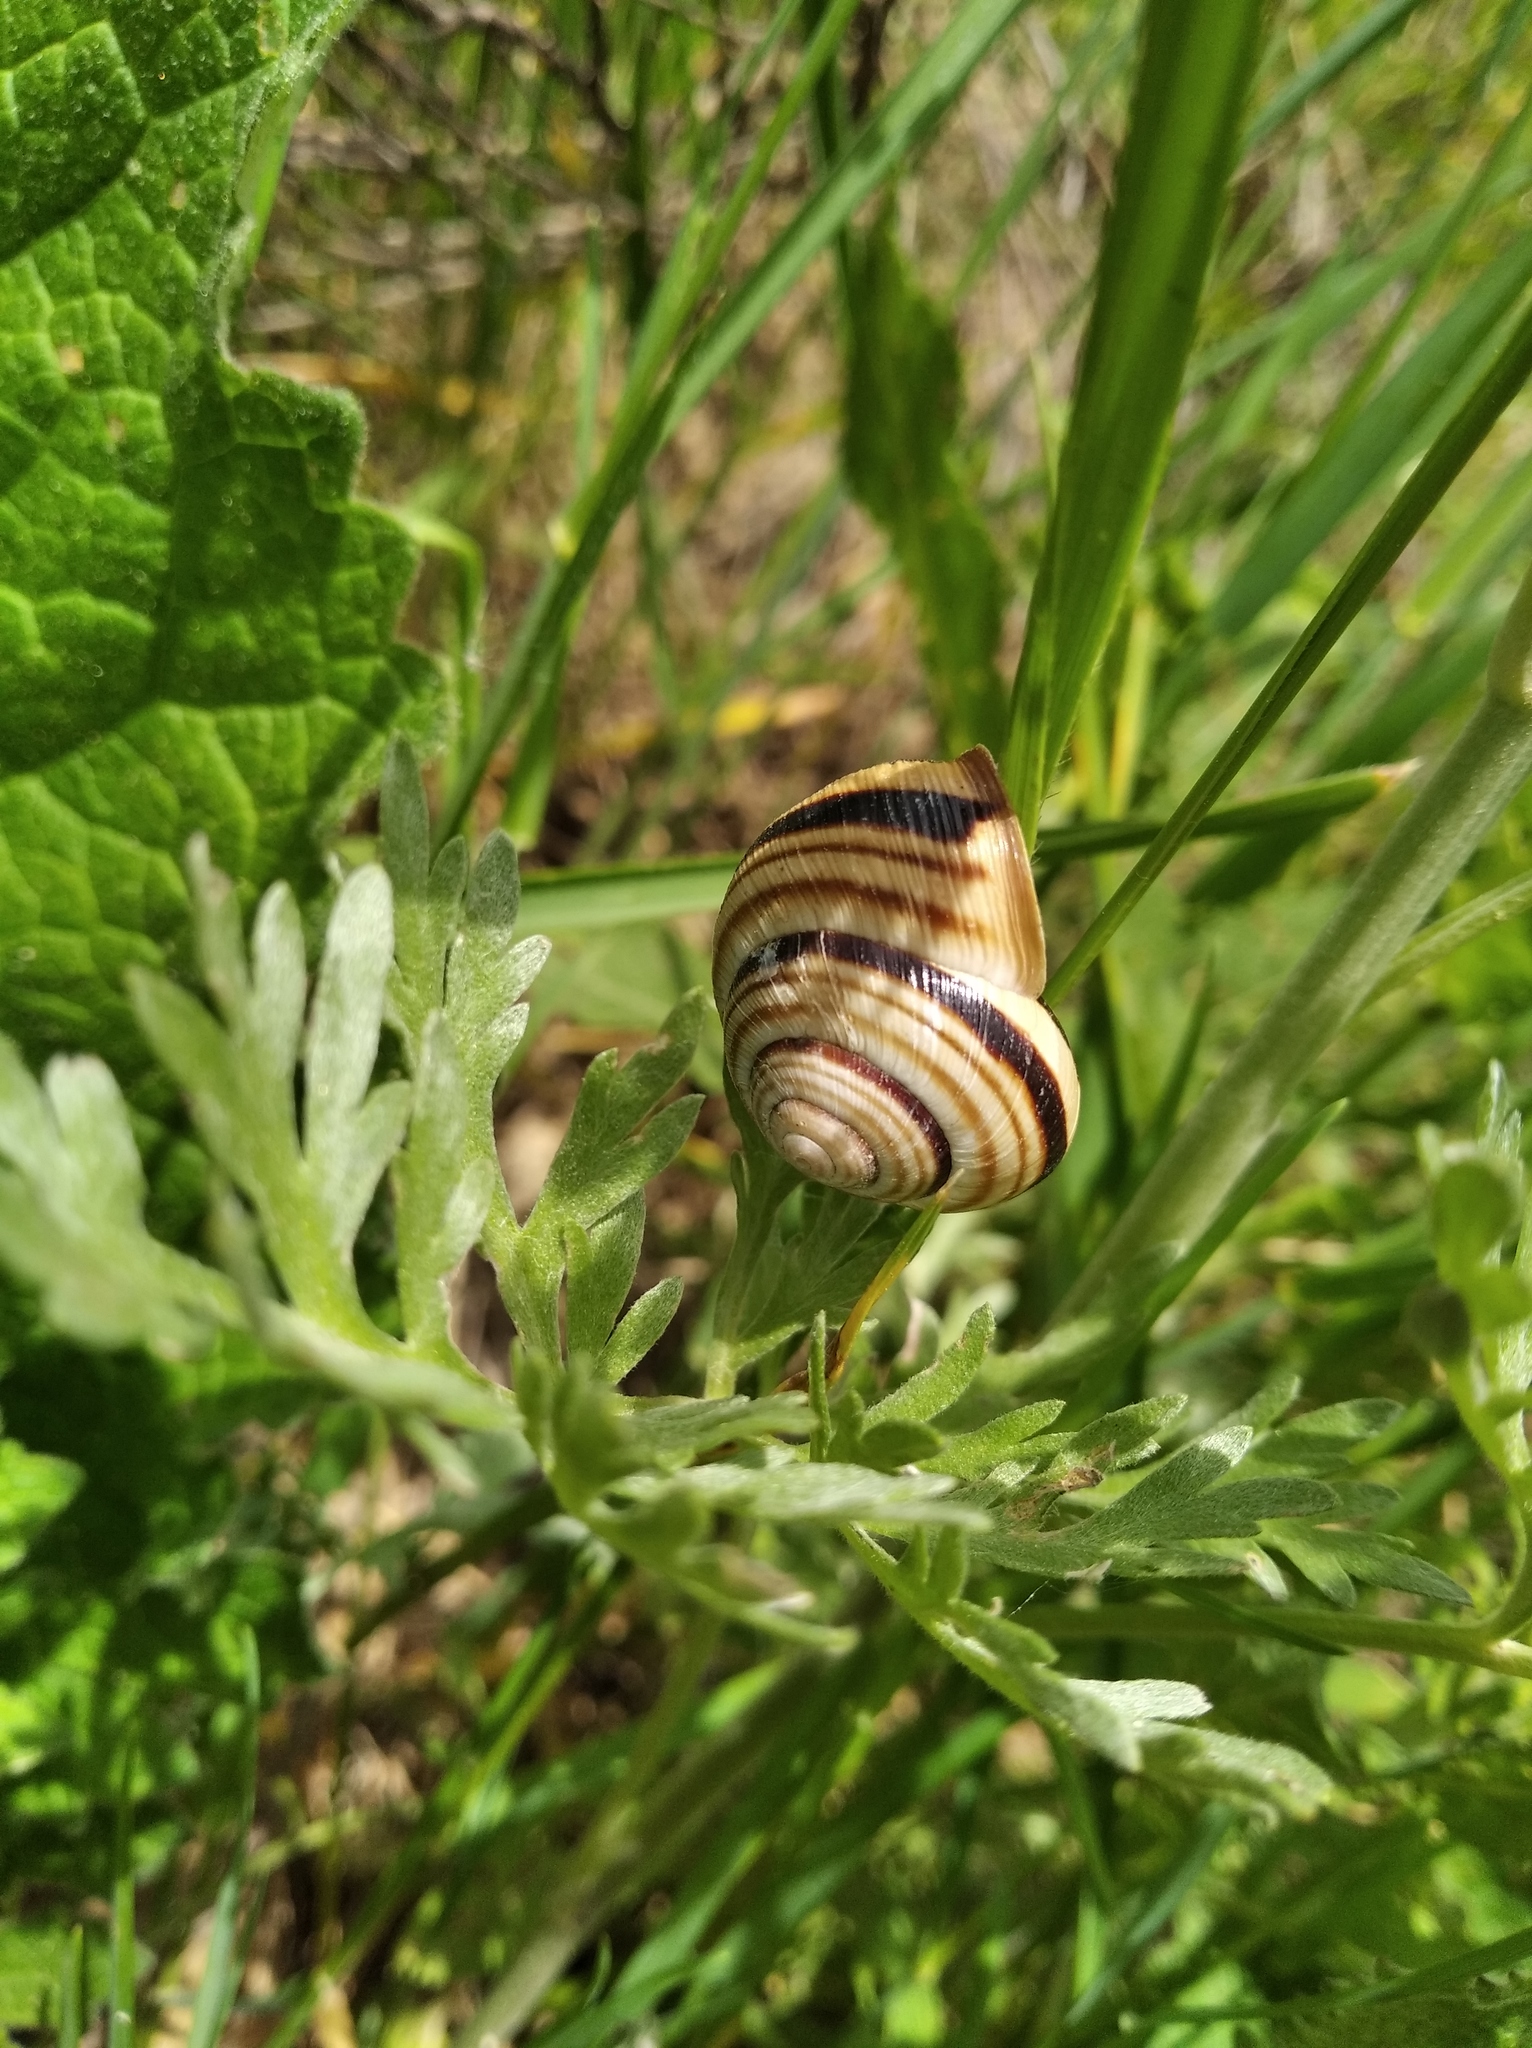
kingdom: Animalia
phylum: Mollusca
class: Gastropoda
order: Stylommatophora
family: Helicidae
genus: Caucasotachea
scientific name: Caucasotachea vindobonensis
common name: European helicid land snail
